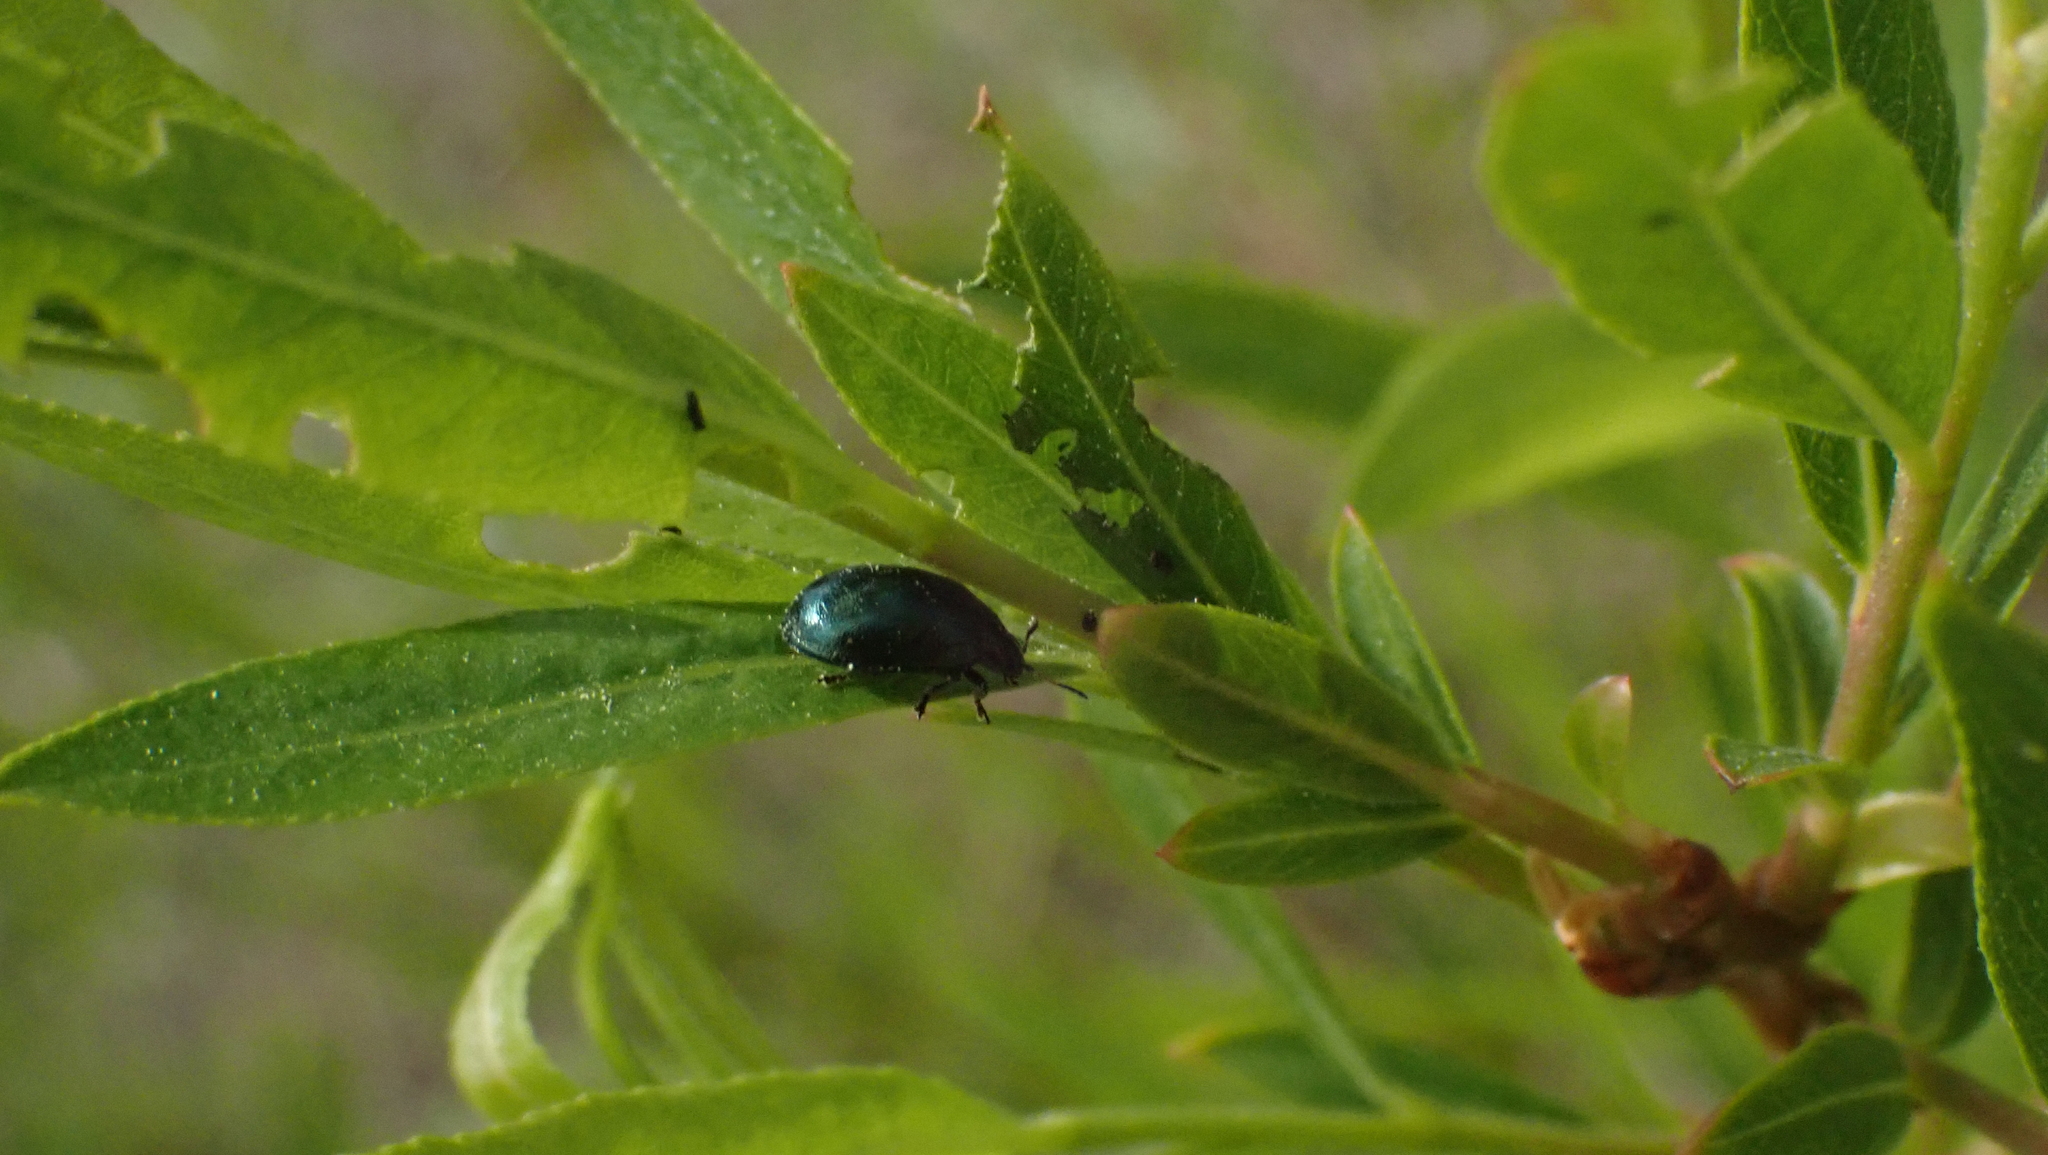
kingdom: Animalia
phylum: Arthropoda
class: Insecta
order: Coleoptera
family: Chrysomelidae
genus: Plagiodera
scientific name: Plagiodera versicolora
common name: Imported willow leaf beetle
